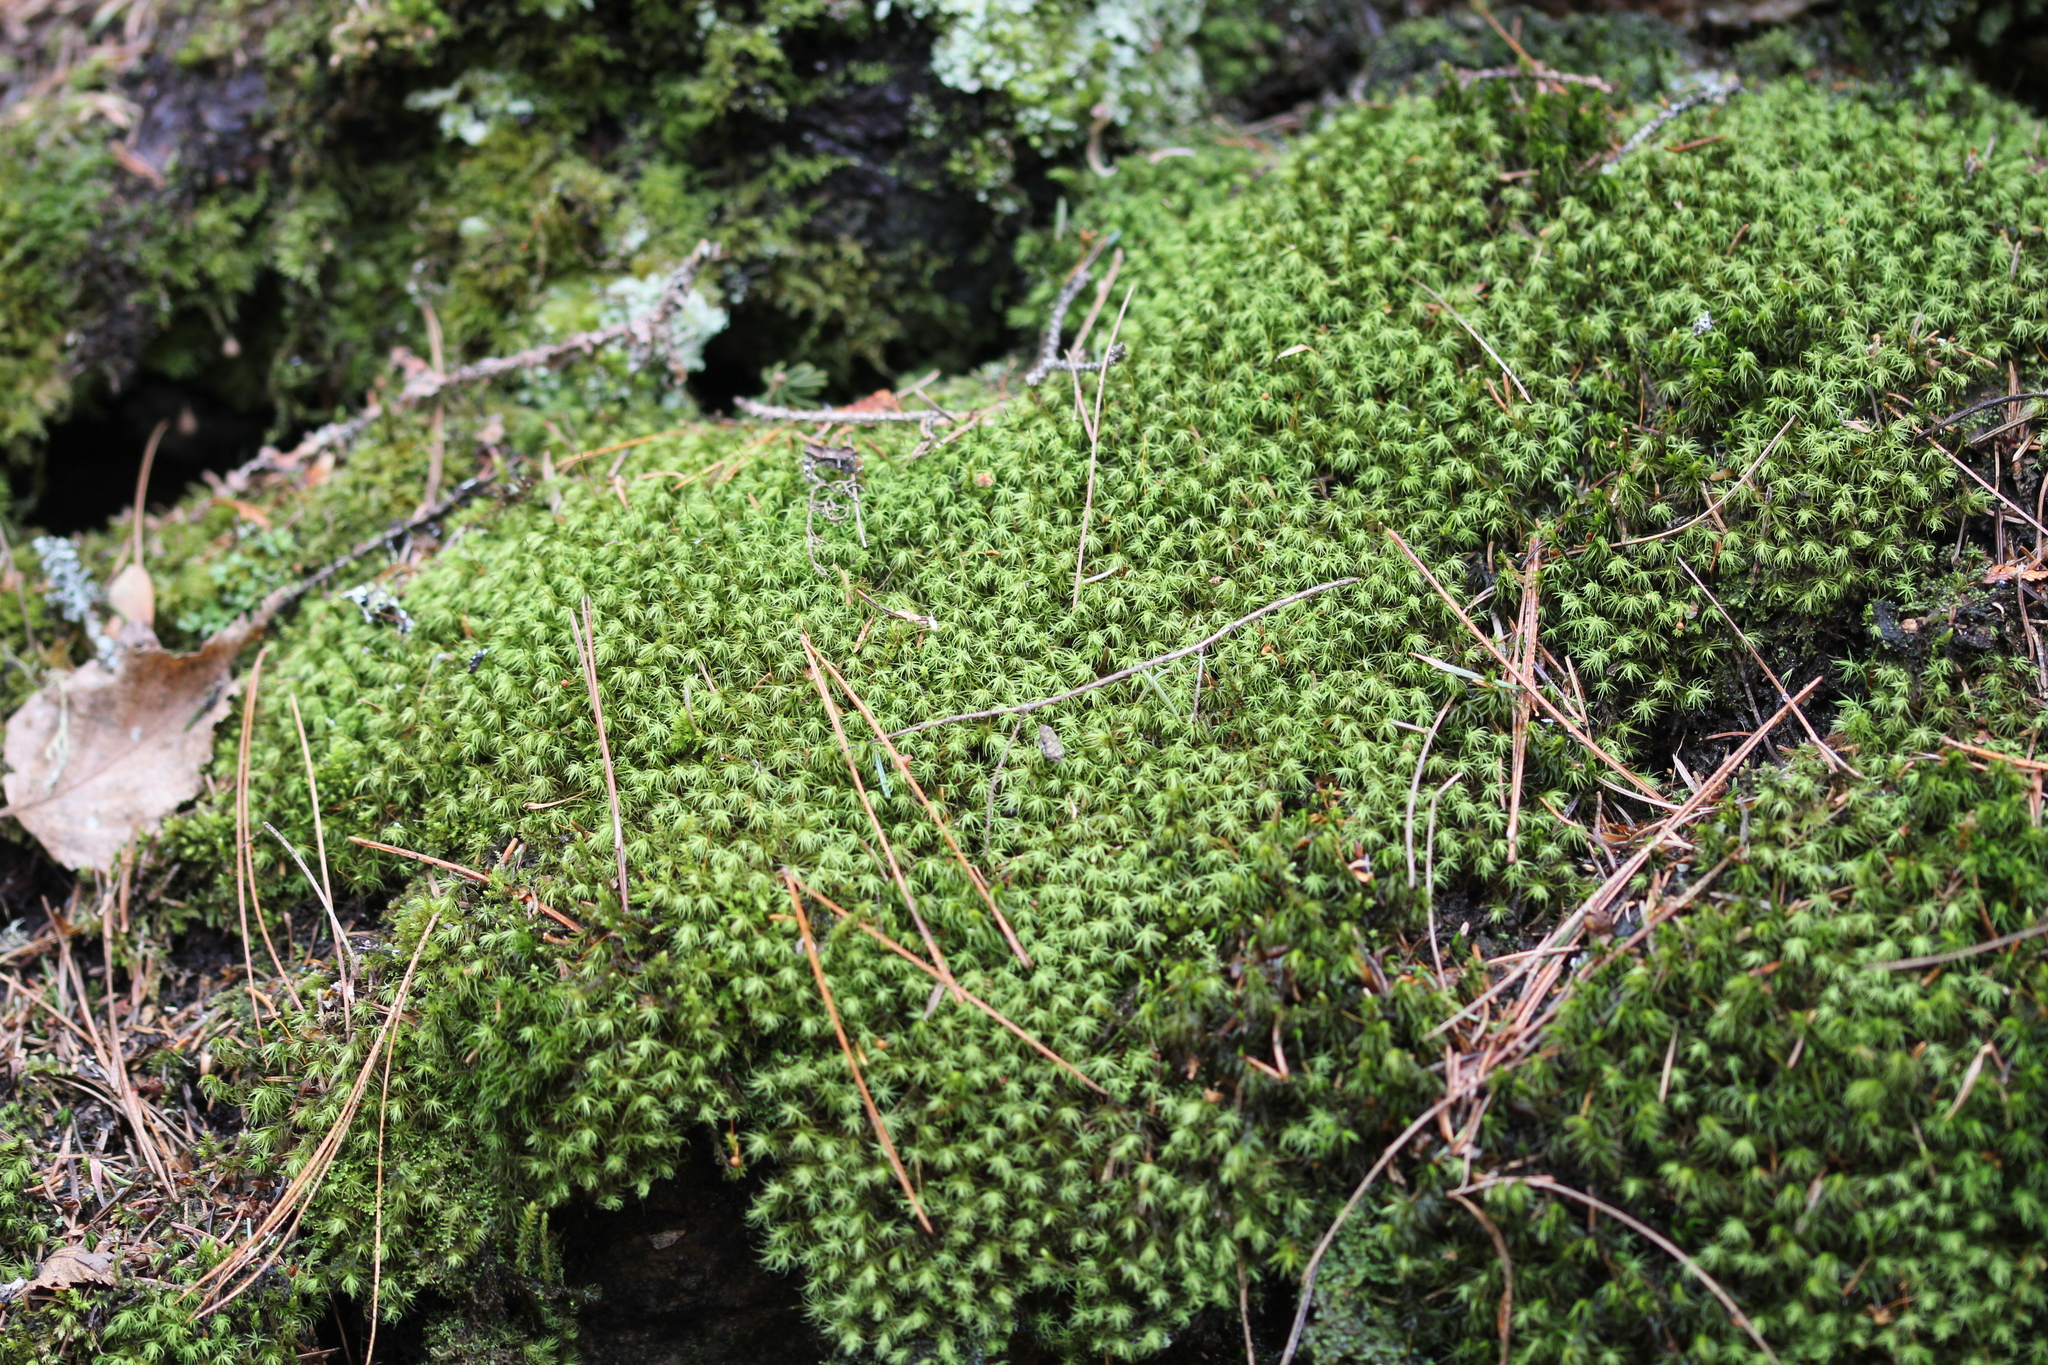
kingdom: Plantae
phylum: Bryophyta
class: Bryopsida
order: Bartramiales
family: Bartramiaceae
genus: Bartramia
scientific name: Bartramia ithyphylla
